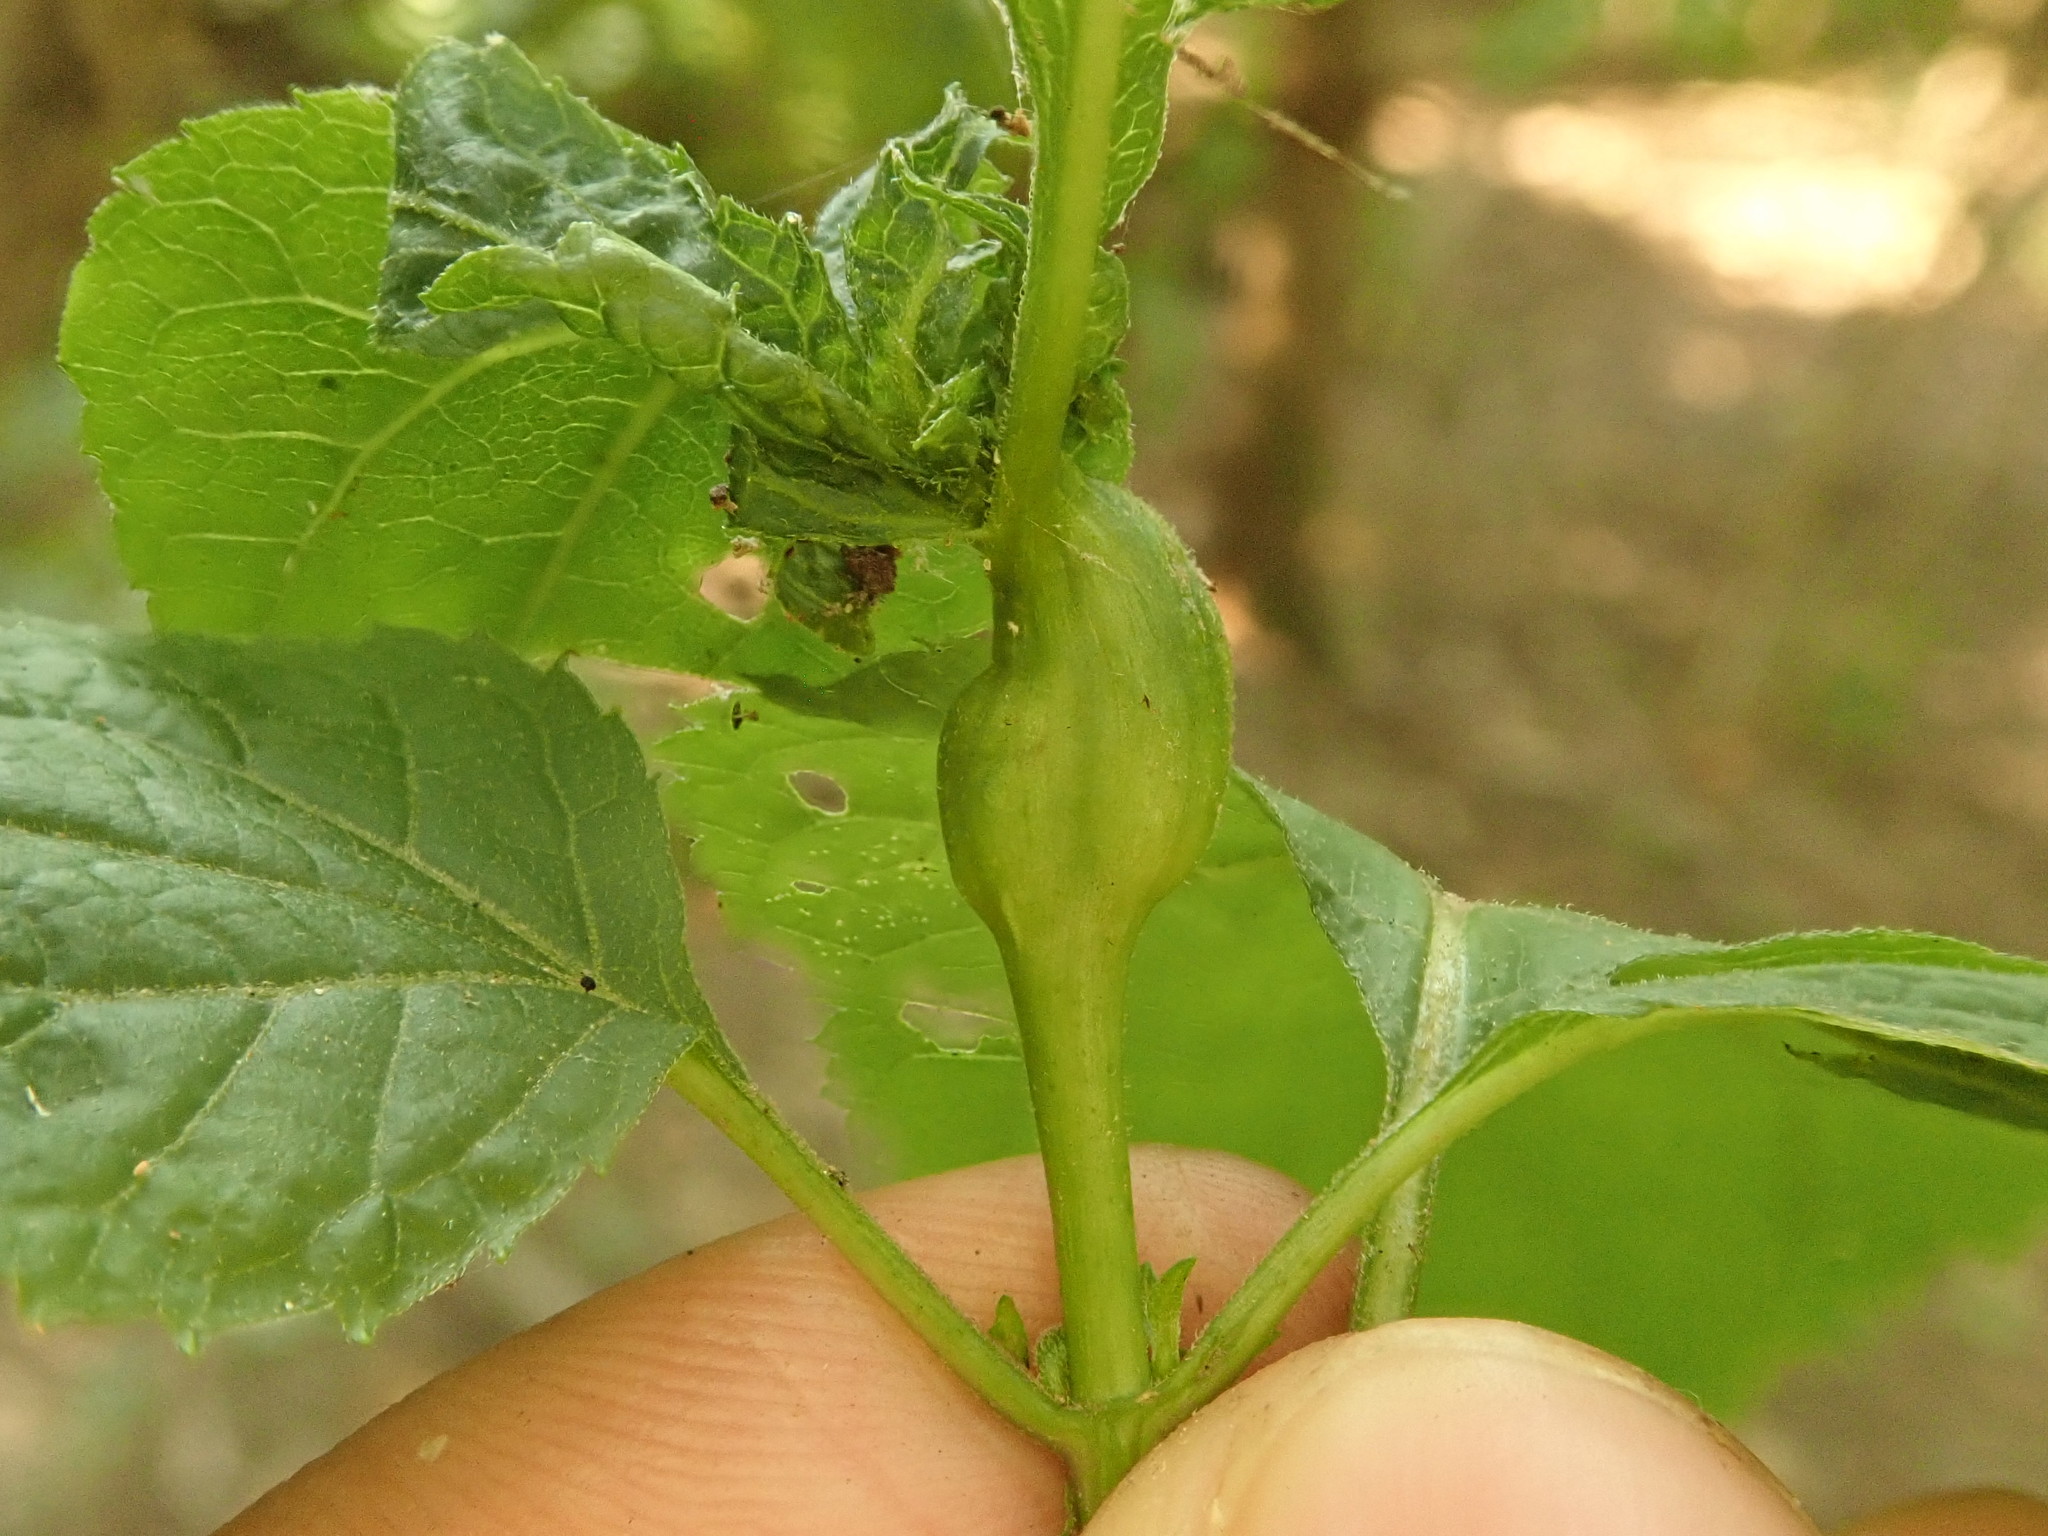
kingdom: Animalia
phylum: Arthropoda
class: Insecta
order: Diptera
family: Cecidomyiidae
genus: Asphondylia
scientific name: Asphondylia eupatorii
